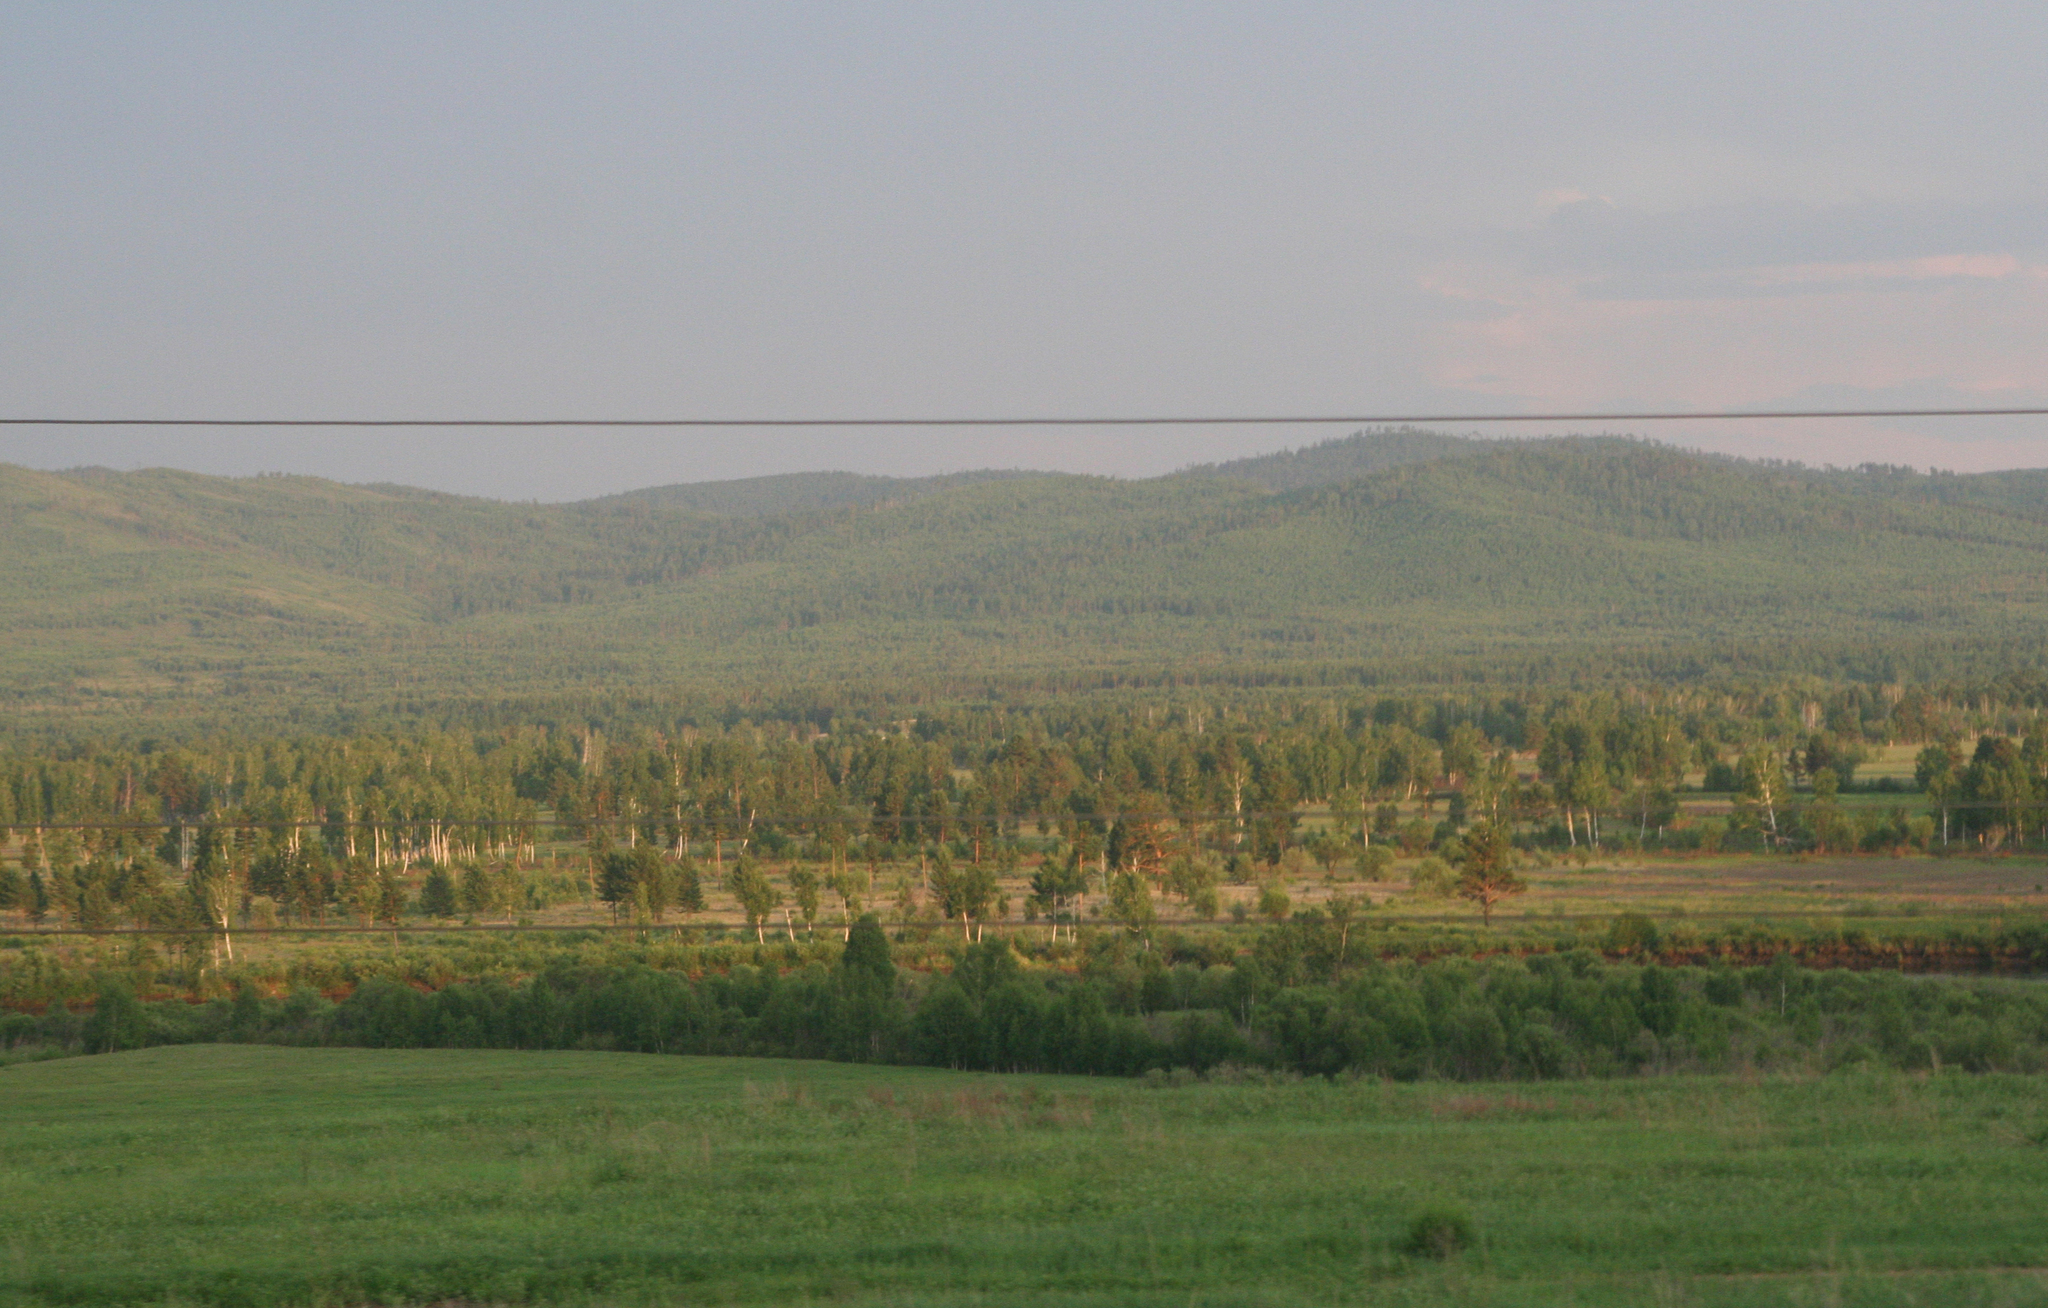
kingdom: Plantae
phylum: Tracheophyta
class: Pinopsida
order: Pinales
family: Pinaceae
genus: Pinus
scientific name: Pinus sylvestris
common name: Scots pine
